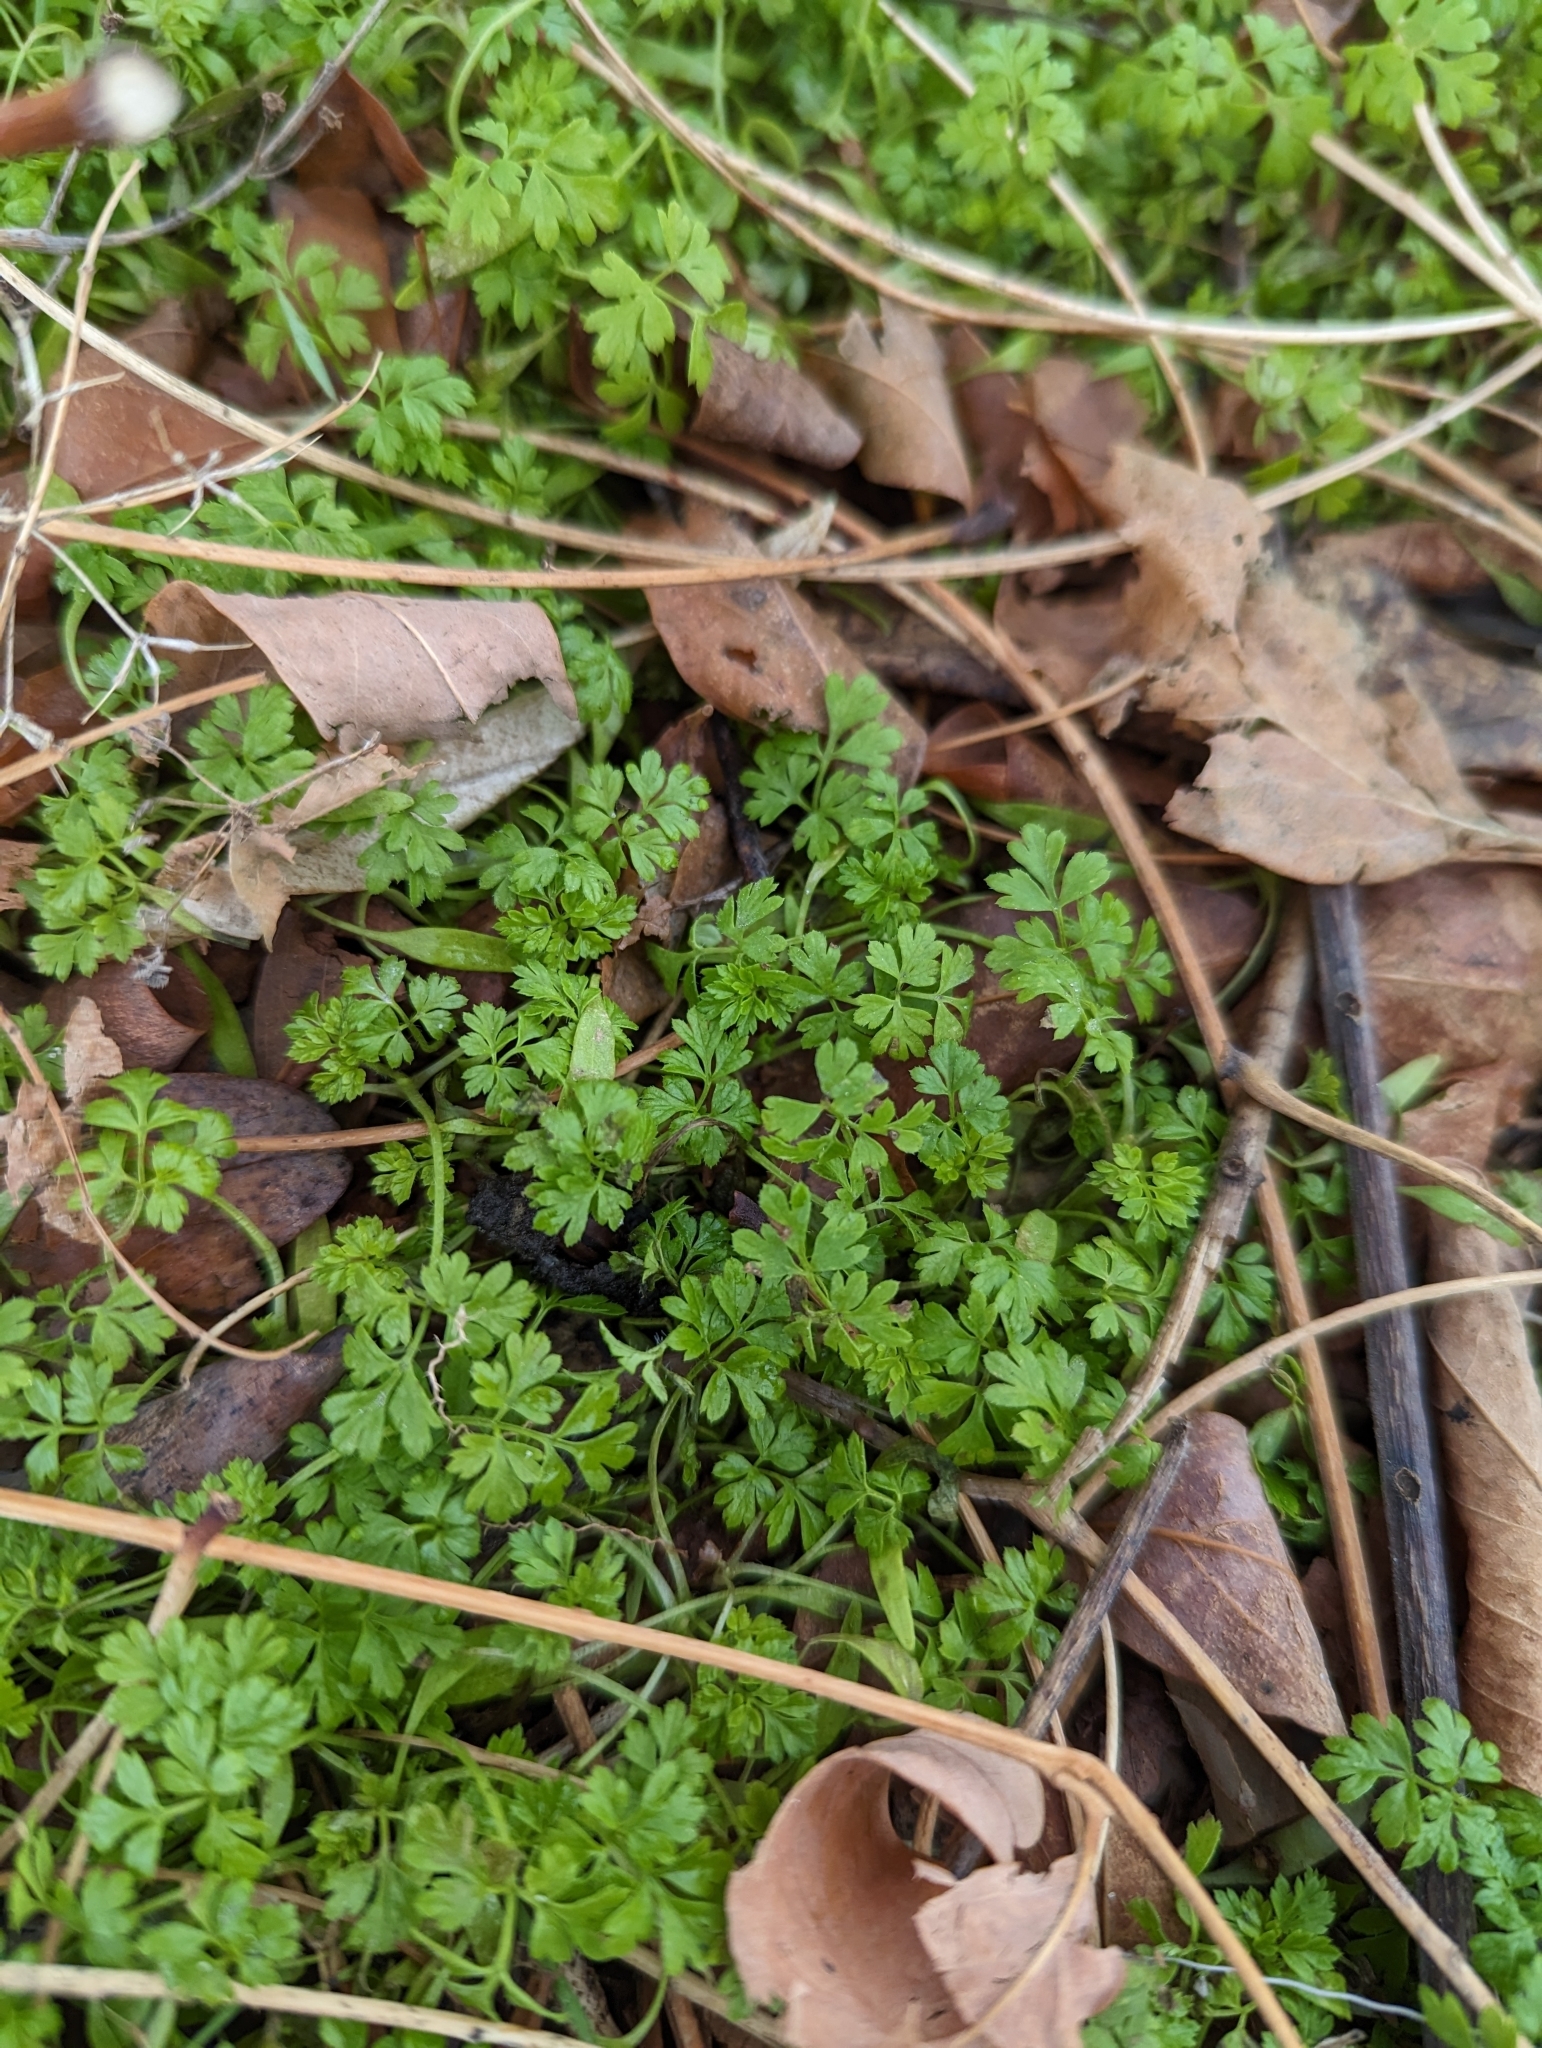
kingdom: Plantae
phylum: Tracheophyta
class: Magnoliopsida
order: Geraniales
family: Geraniaceae
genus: Geranium
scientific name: Geranium robertianum
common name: Herb-robert
